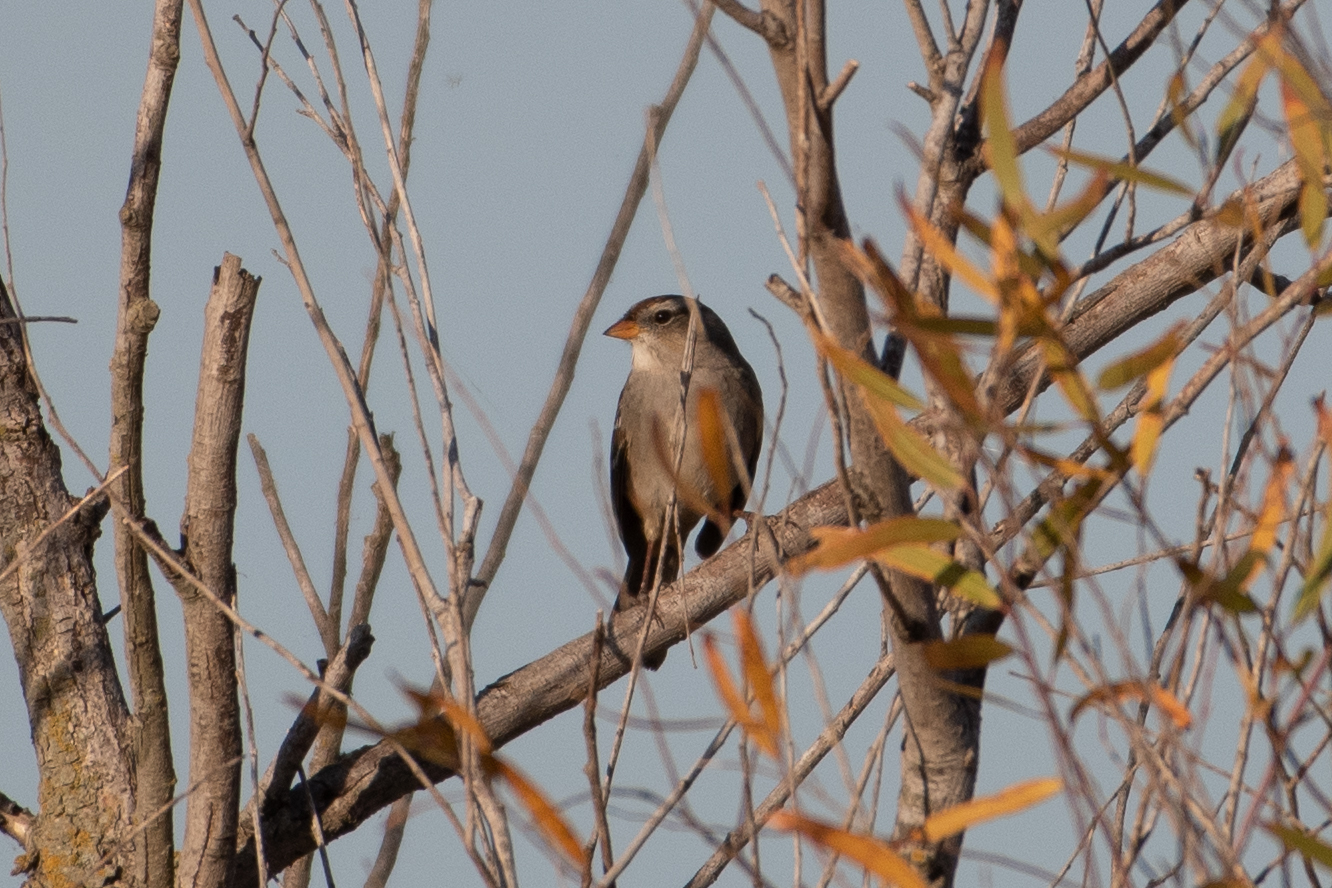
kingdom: Animalia
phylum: Chordata
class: Aves
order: Passeriformes
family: Passerellidae
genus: Zonotrichia
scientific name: Zonotrichia leucophrys
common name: White-crowned sparrow
